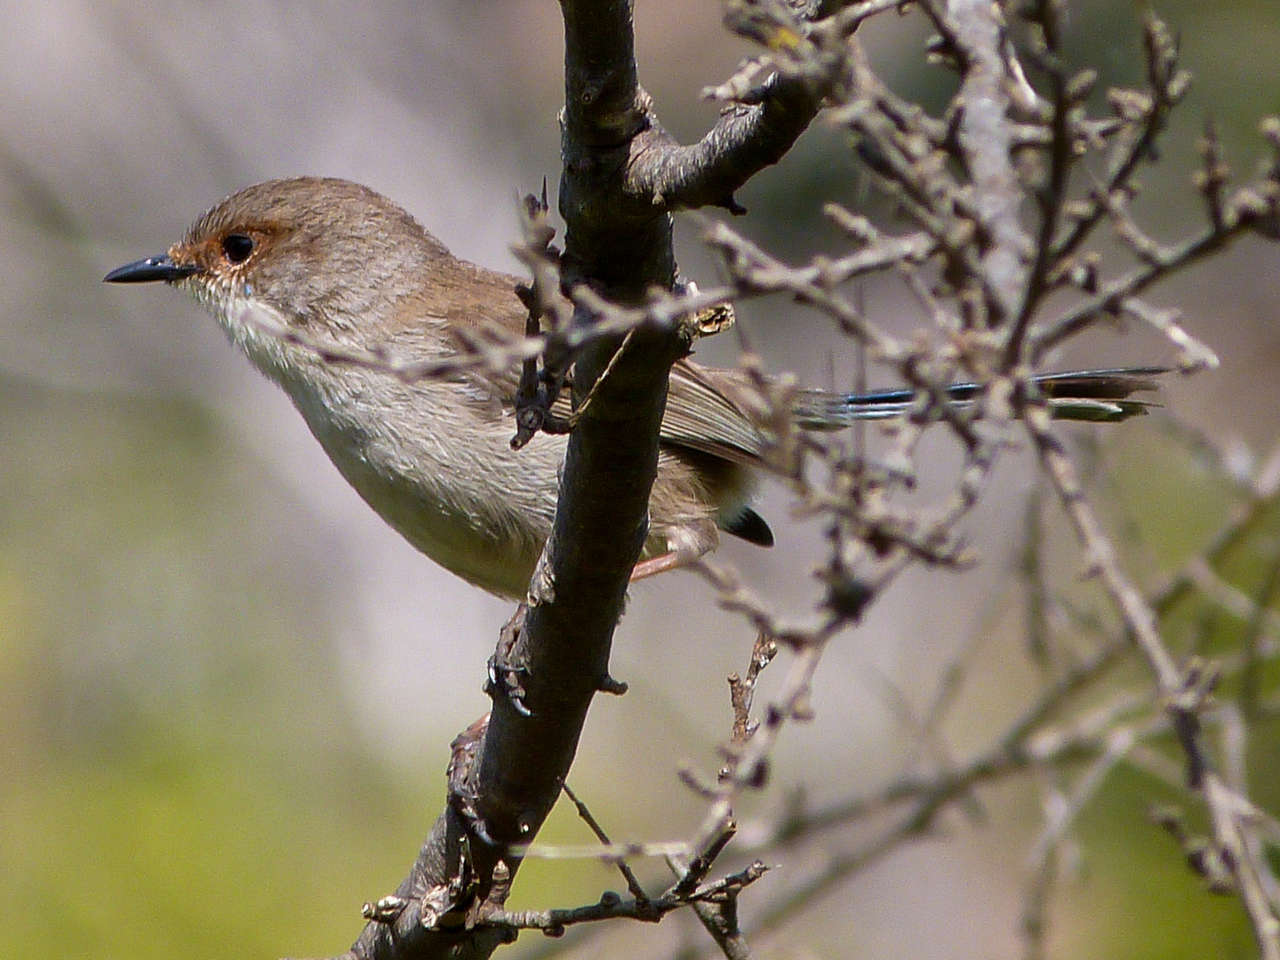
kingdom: Animalia
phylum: Chordata
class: Aves
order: Passeriformes
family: Maluridae
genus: Malurus
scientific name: Malurus cyaneus
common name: Superb fairywren
